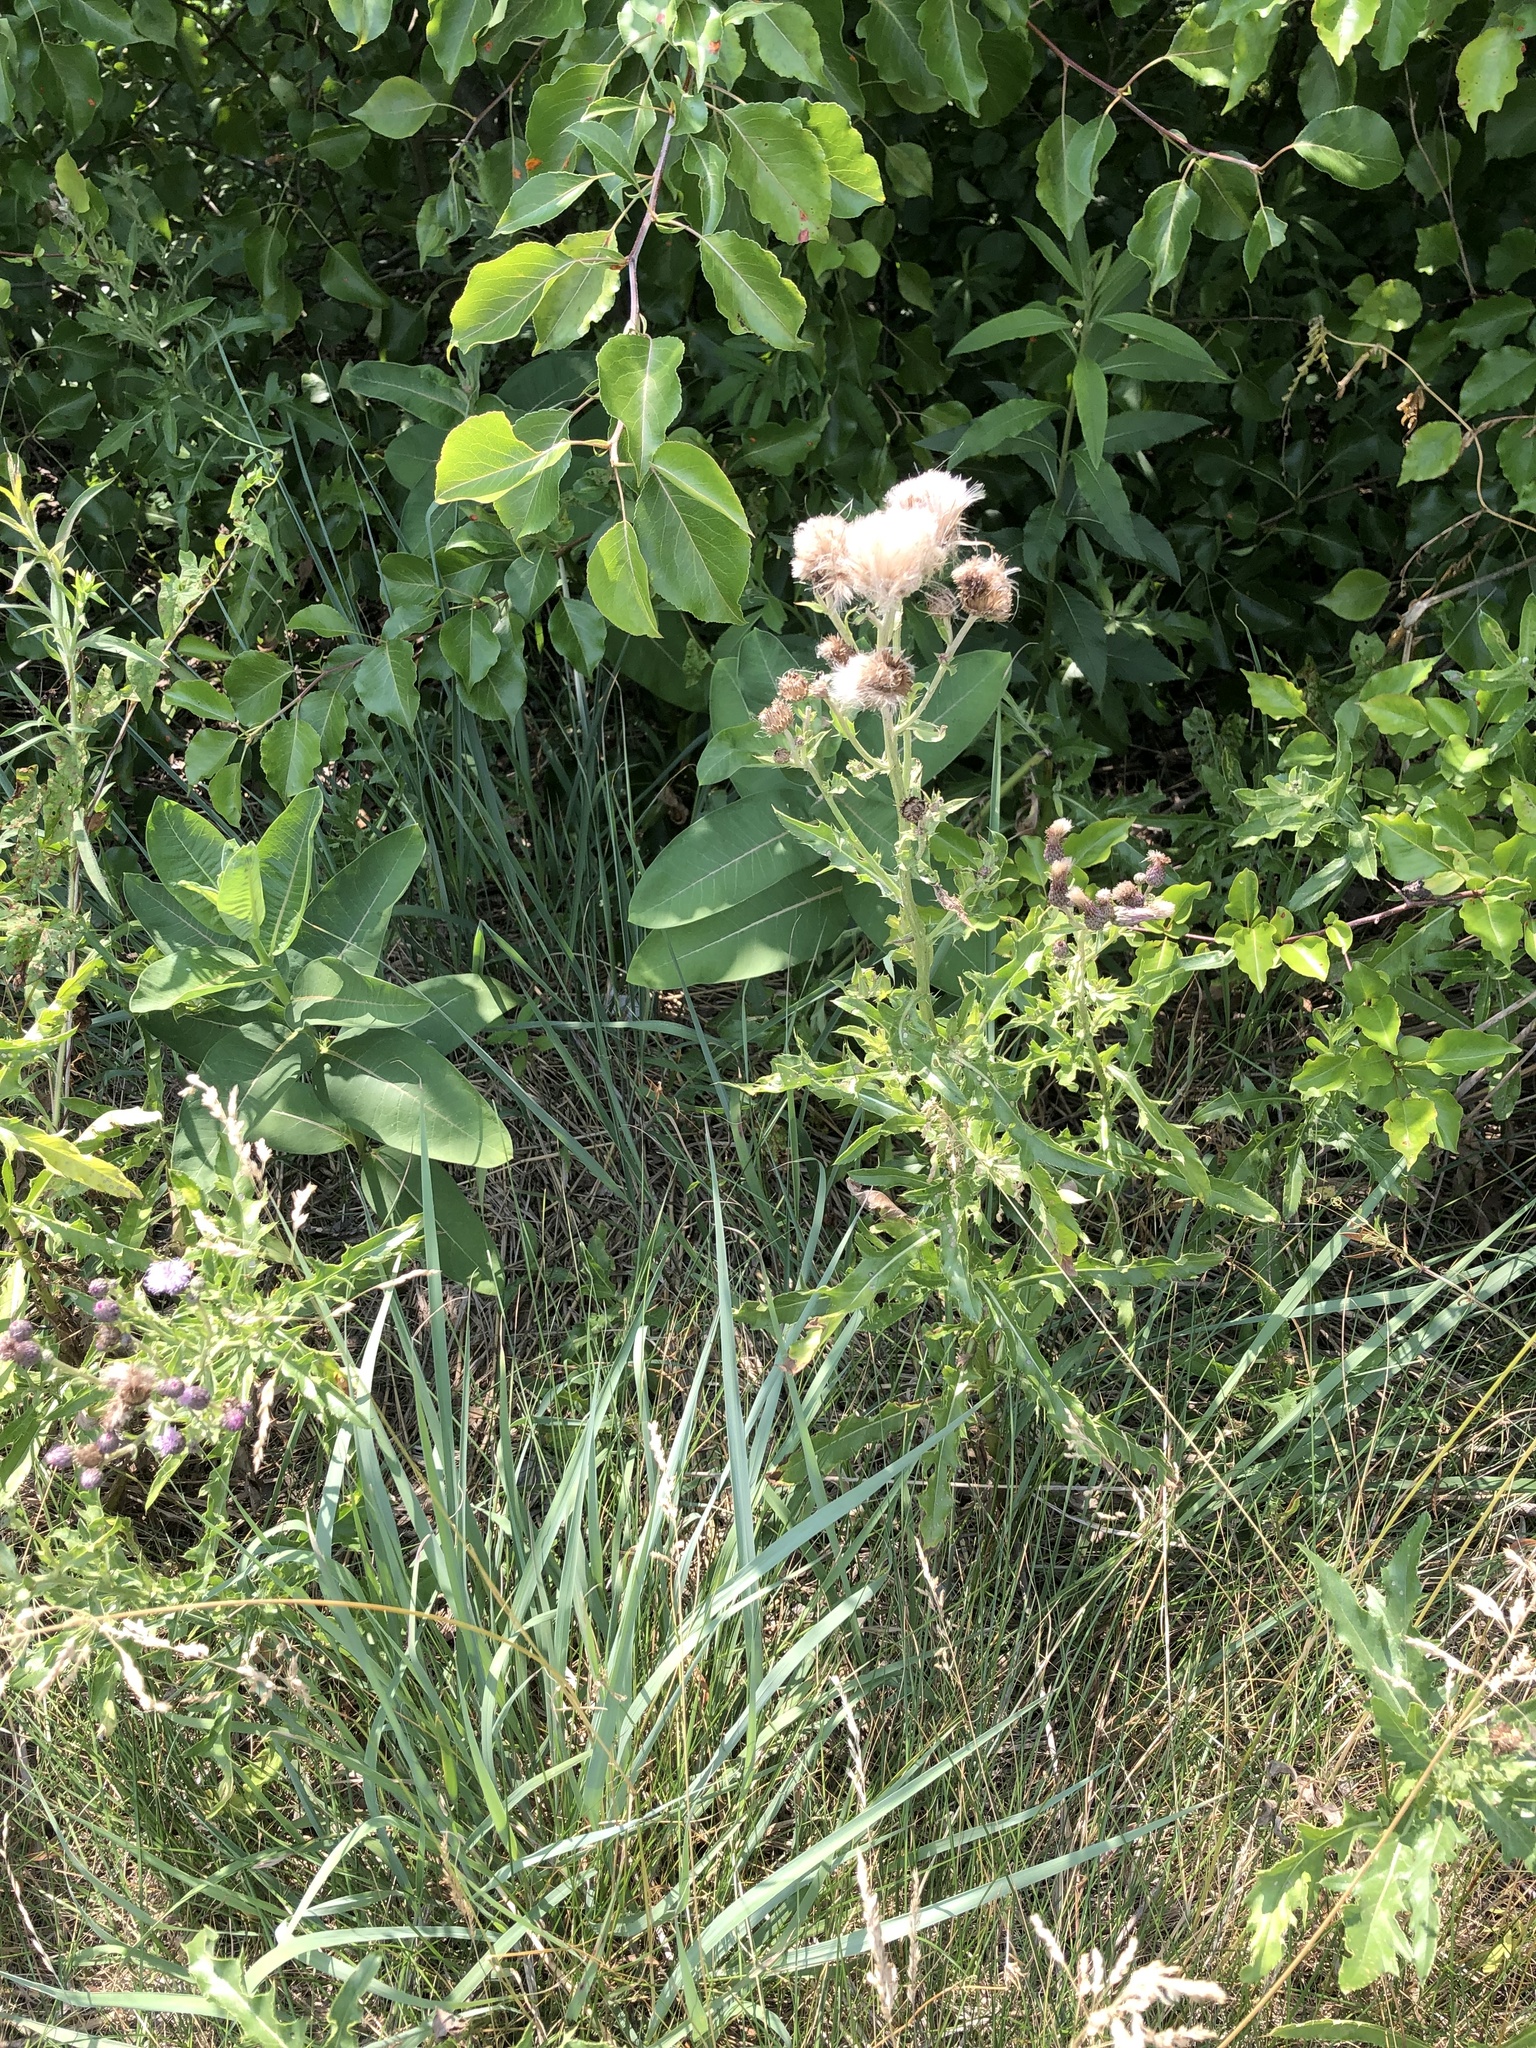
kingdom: Plantae
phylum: Tracheophyta
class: Magnoliopsida
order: Asterales
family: Asteraceae
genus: Cirsium
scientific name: Cirsium arvense
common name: Creeping thistle
